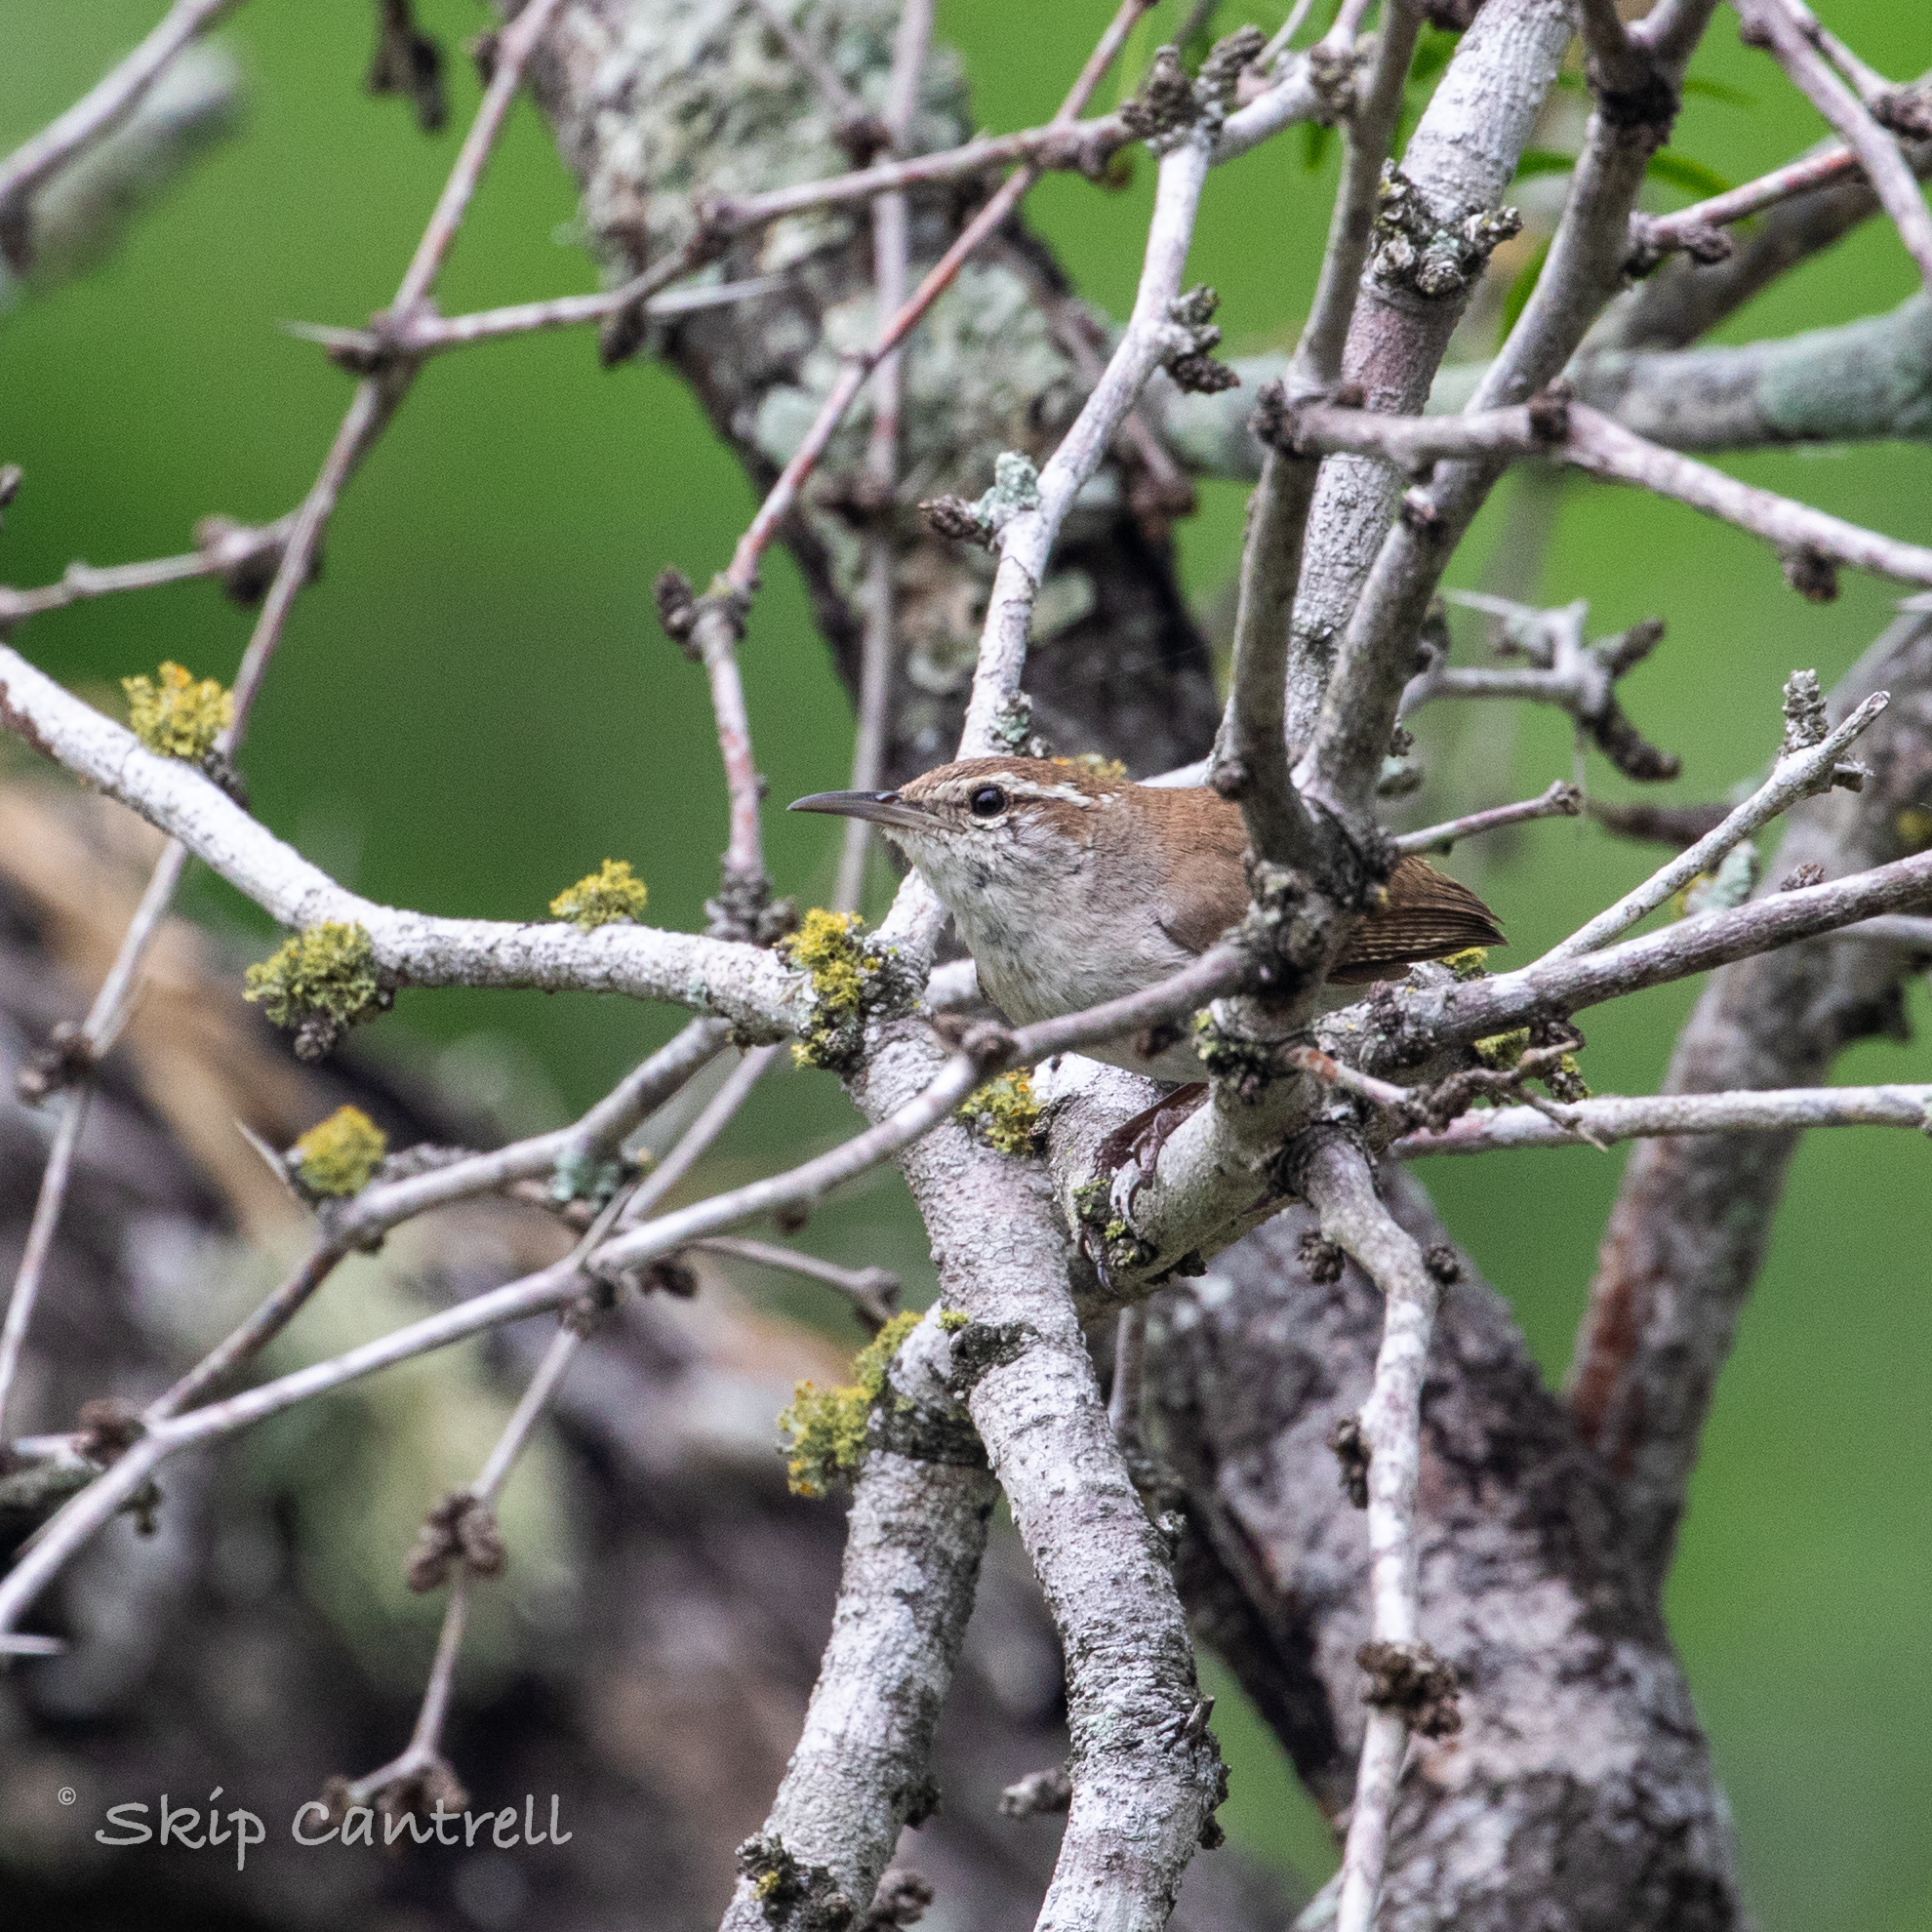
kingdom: Animalia
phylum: Chordata
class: Aves
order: Passeriformes
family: Troglodytidae
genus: Thryomanes
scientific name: Thryomanes bewickii
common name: Bewick's wren
